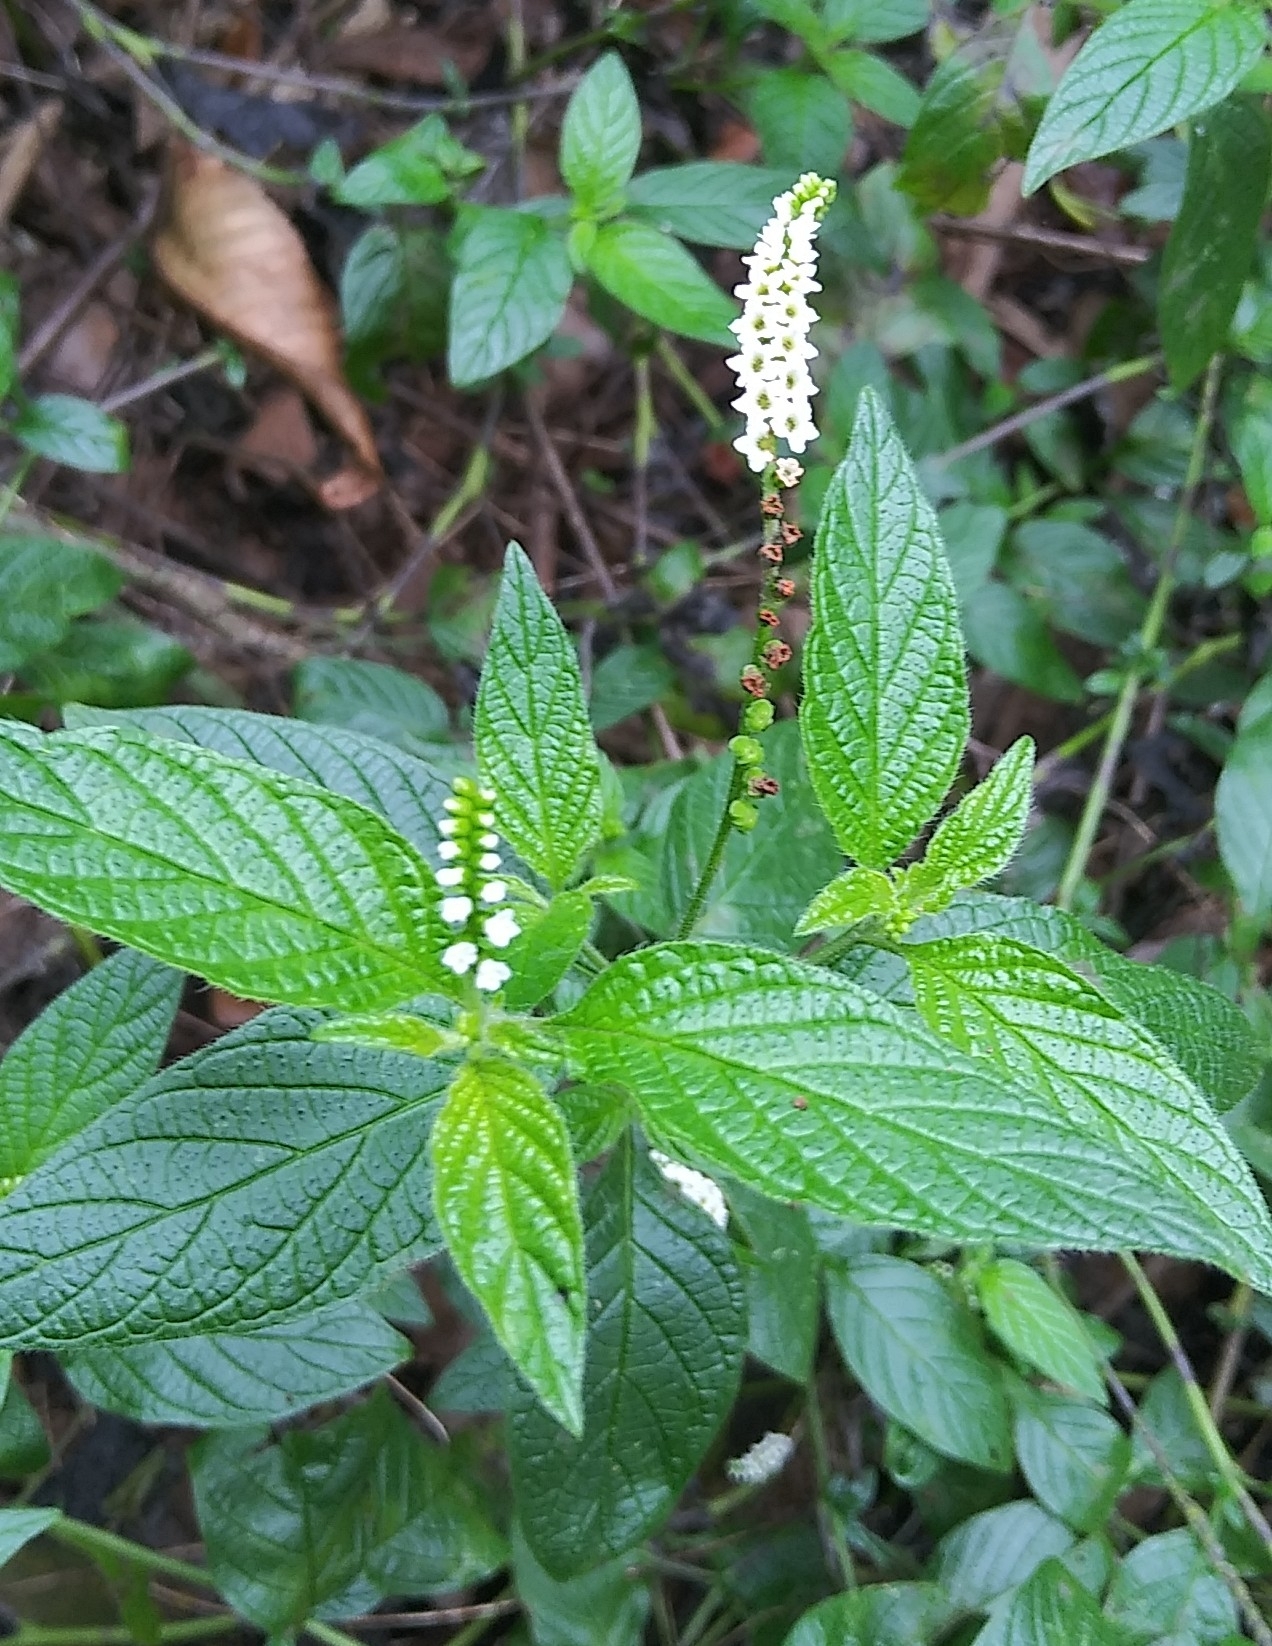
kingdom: Plantae
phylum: Tracheophyta
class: Magnoliopsida
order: Boraginales
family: Heliotropiaceae
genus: Heliotropium
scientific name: Heliotropium angiospermum
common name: Eye bright
